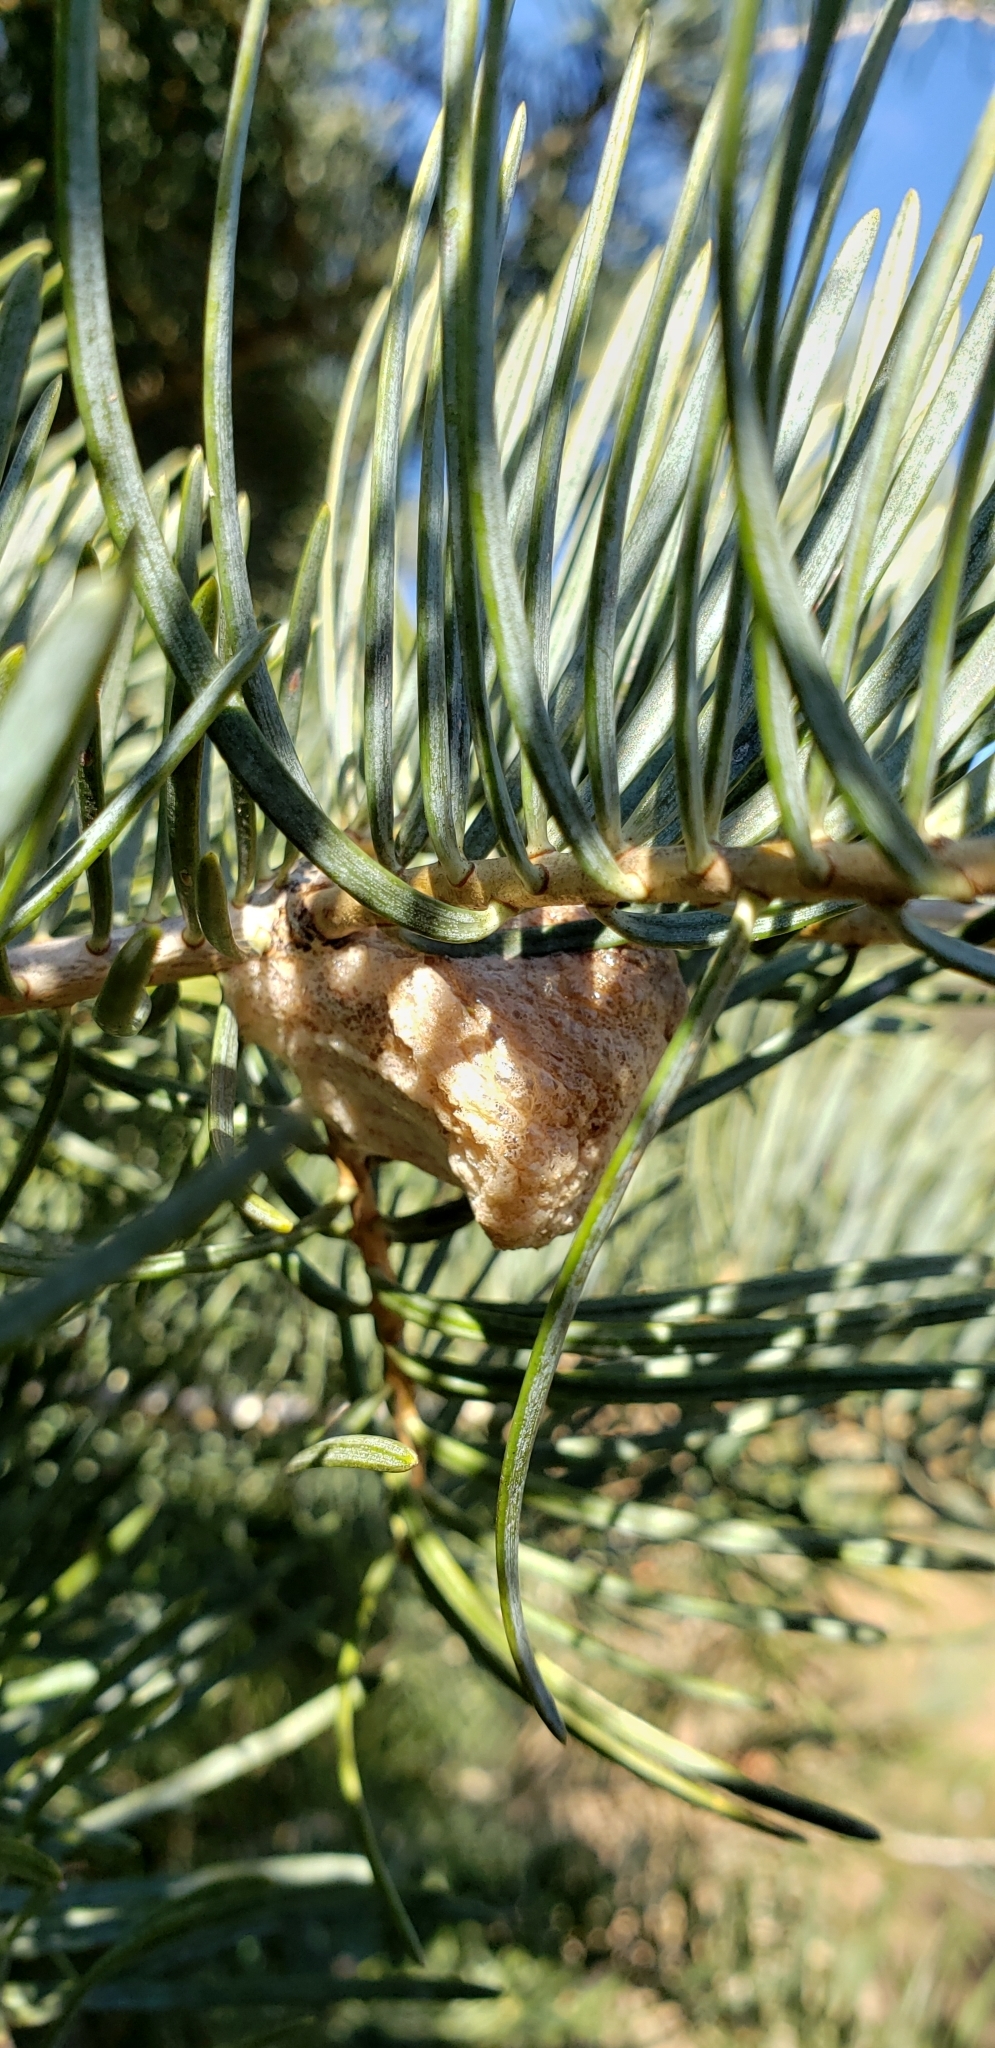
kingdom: Animalia
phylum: Arthropoda
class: Insecta
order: Mantodea
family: Mantidae
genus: Tenodera
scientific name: Tenodera sinensis
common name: Chinese mantis
